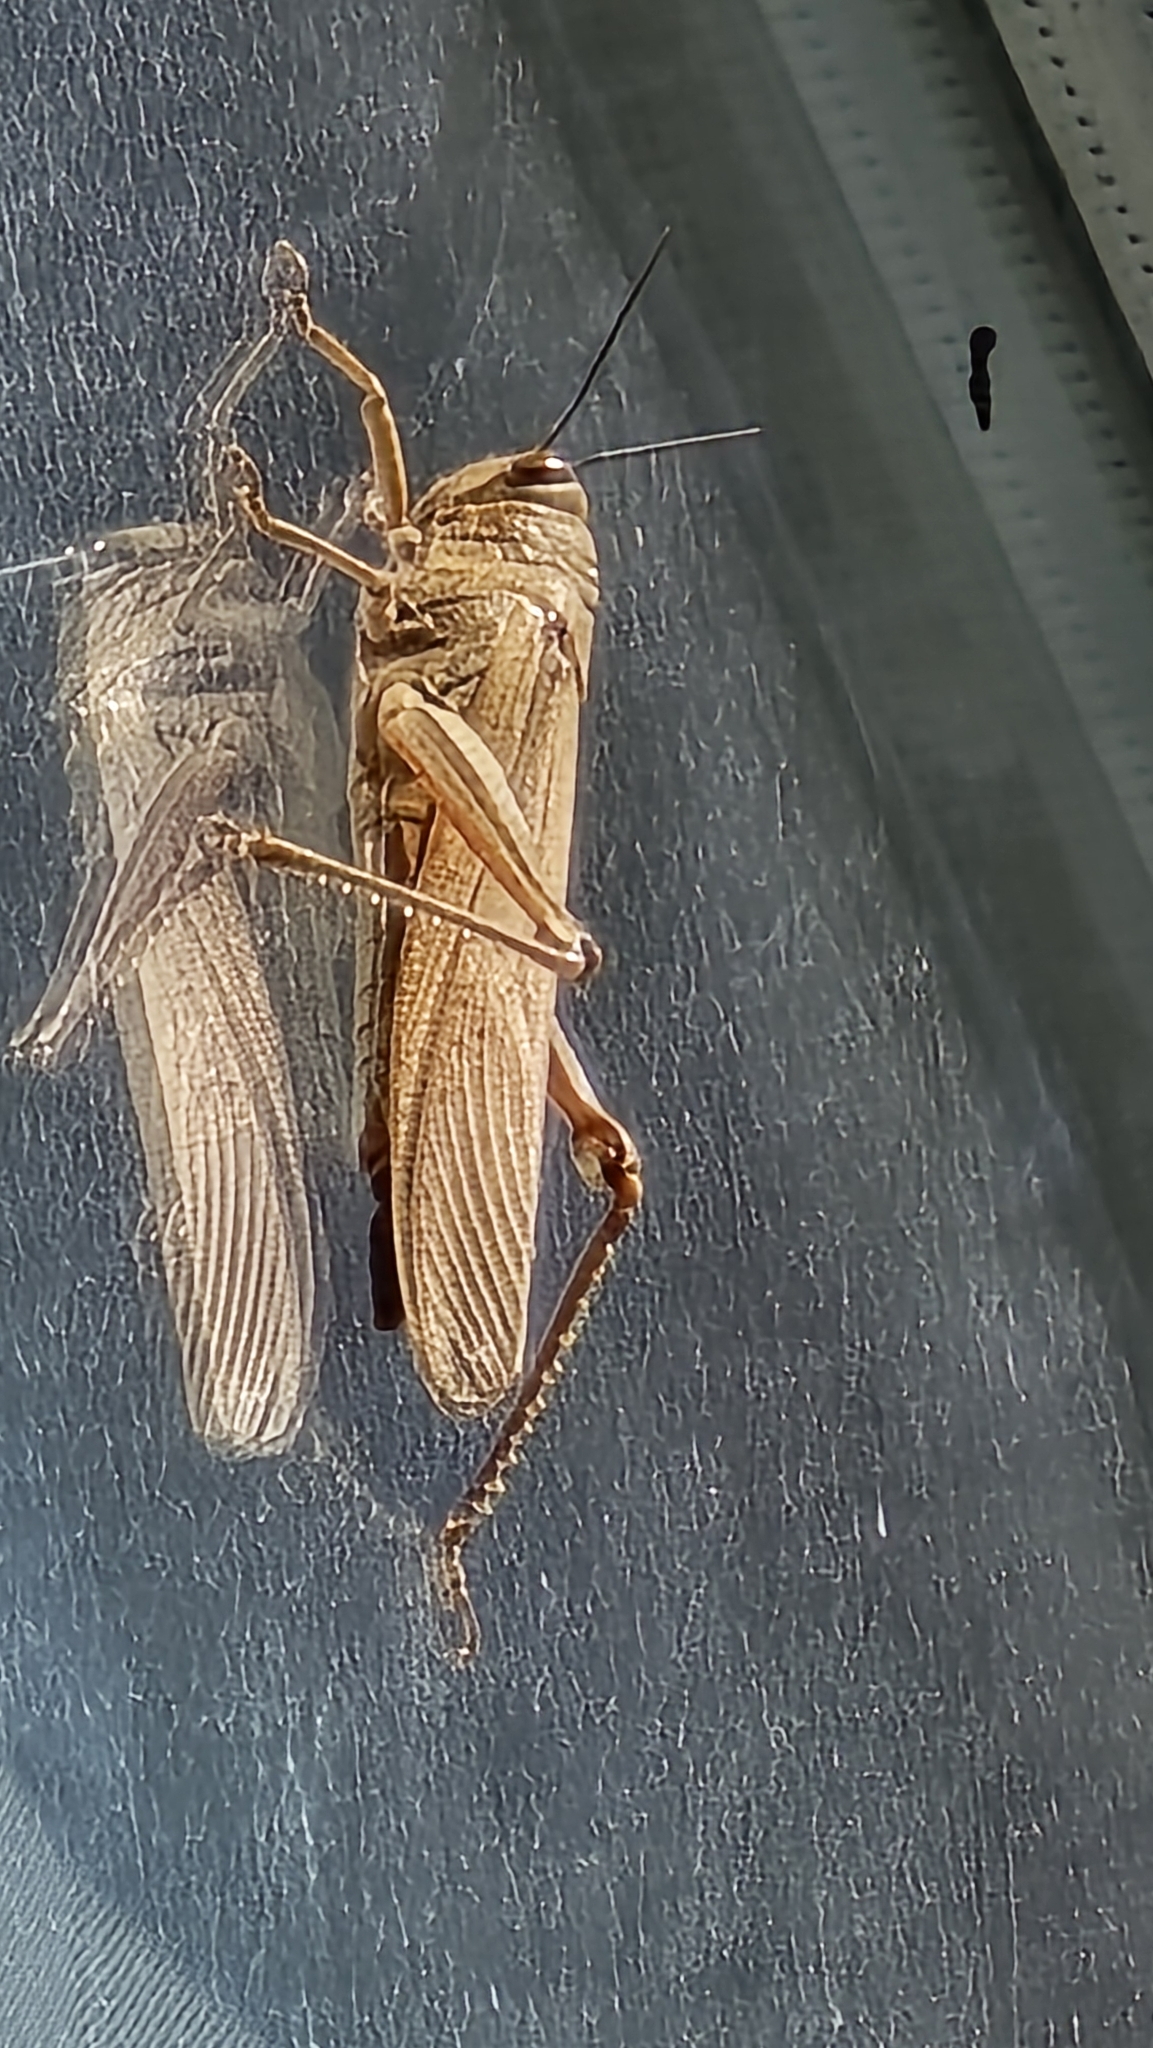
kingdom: Animalia
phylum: Arthropoda
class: Insecta
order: Orthoptera
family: Acrididae
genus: Anacridium
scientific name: Anacridium aegyptium
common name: Egyptian grasshopper
